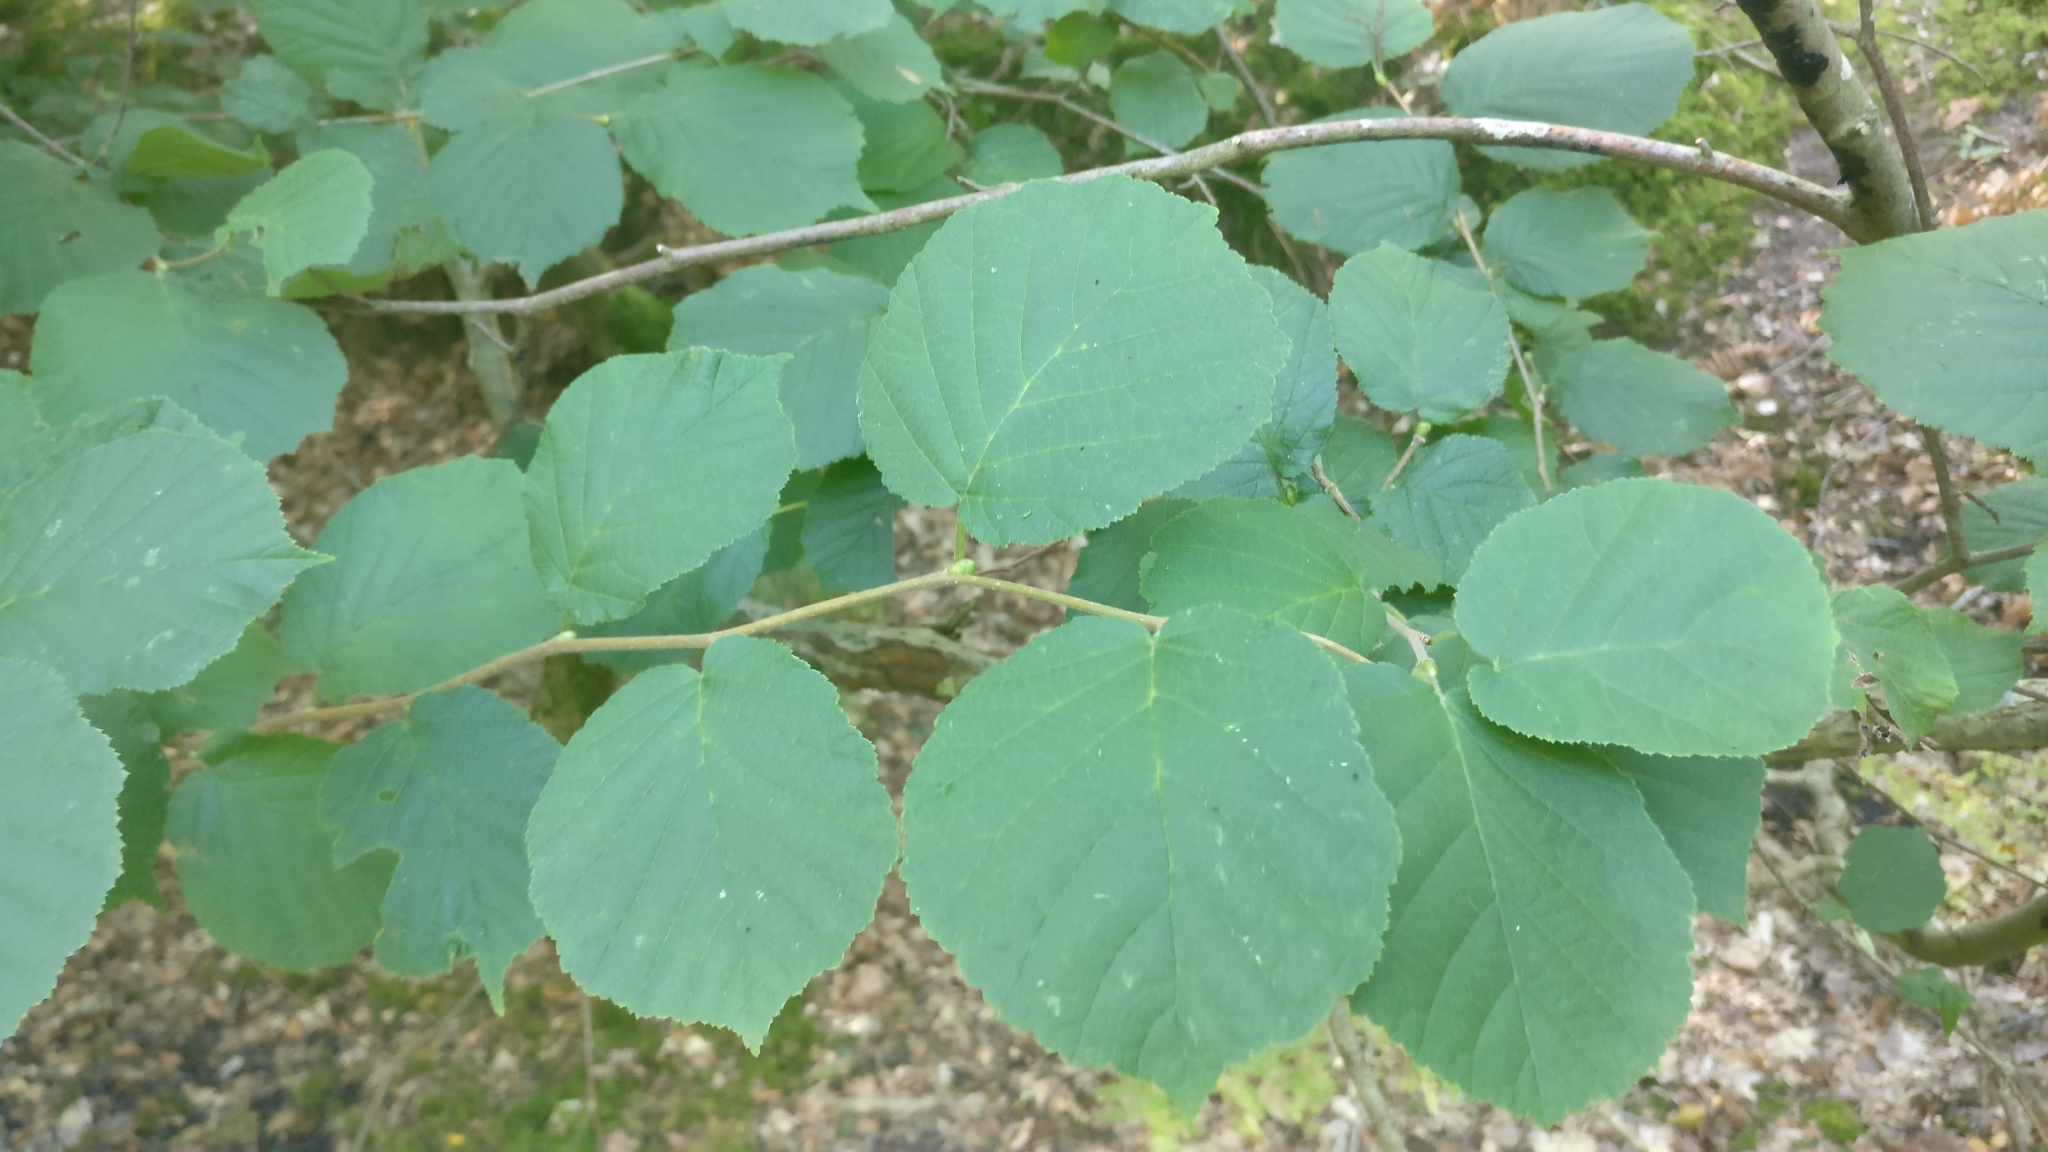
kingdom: Plantae
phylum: Tracheophyta
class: Magnoliopsida
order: Fagales
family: Betulaceae
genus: Corylus
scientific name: Corylus avellana
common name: European hazel
